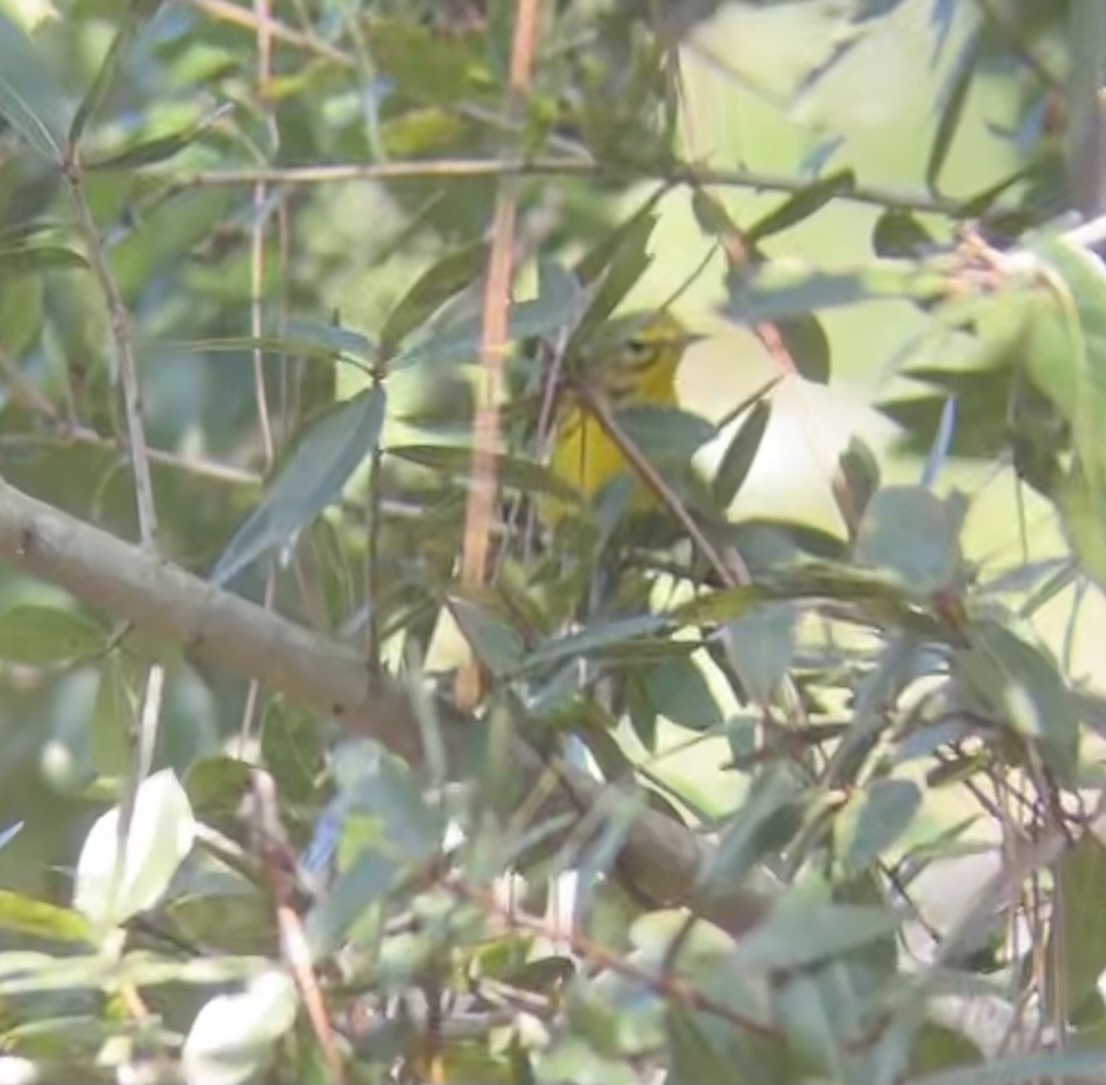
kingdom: Animalia
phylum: Chordata
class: Aves
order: Passeriformes
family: Parulidae
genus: Setophaga
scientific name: Setophaga discolor
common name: Prairie warbler
